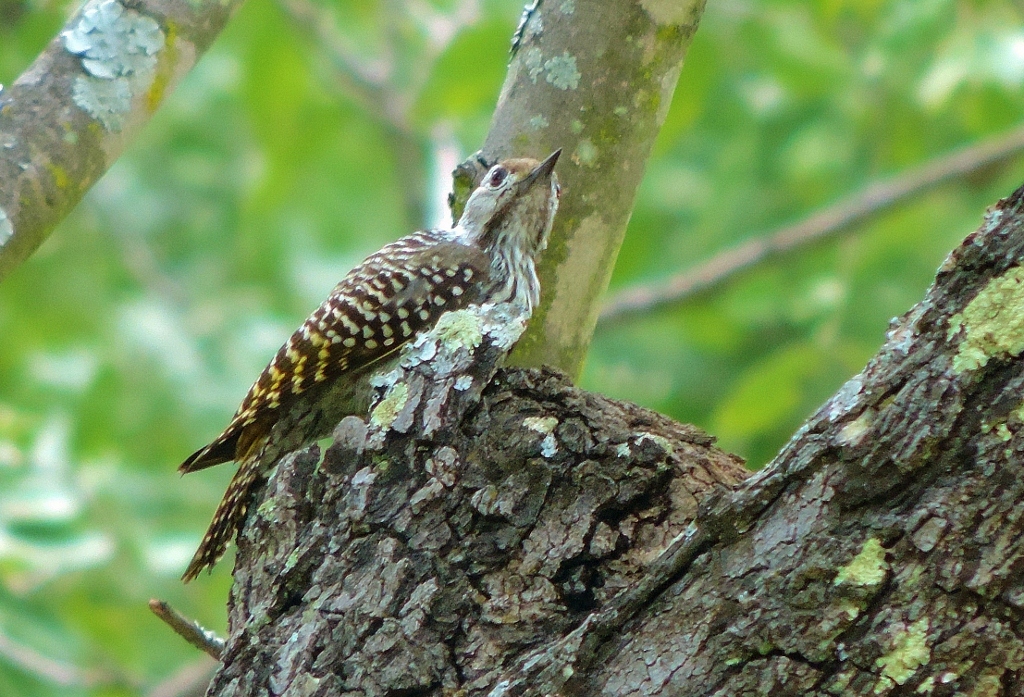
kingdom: Animalia
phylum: Chordata
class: Aves
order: Piciformes
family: Picidae
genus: Dendropicos
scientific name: Dendropicos fuscescens
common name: Cardinal woodpecker
